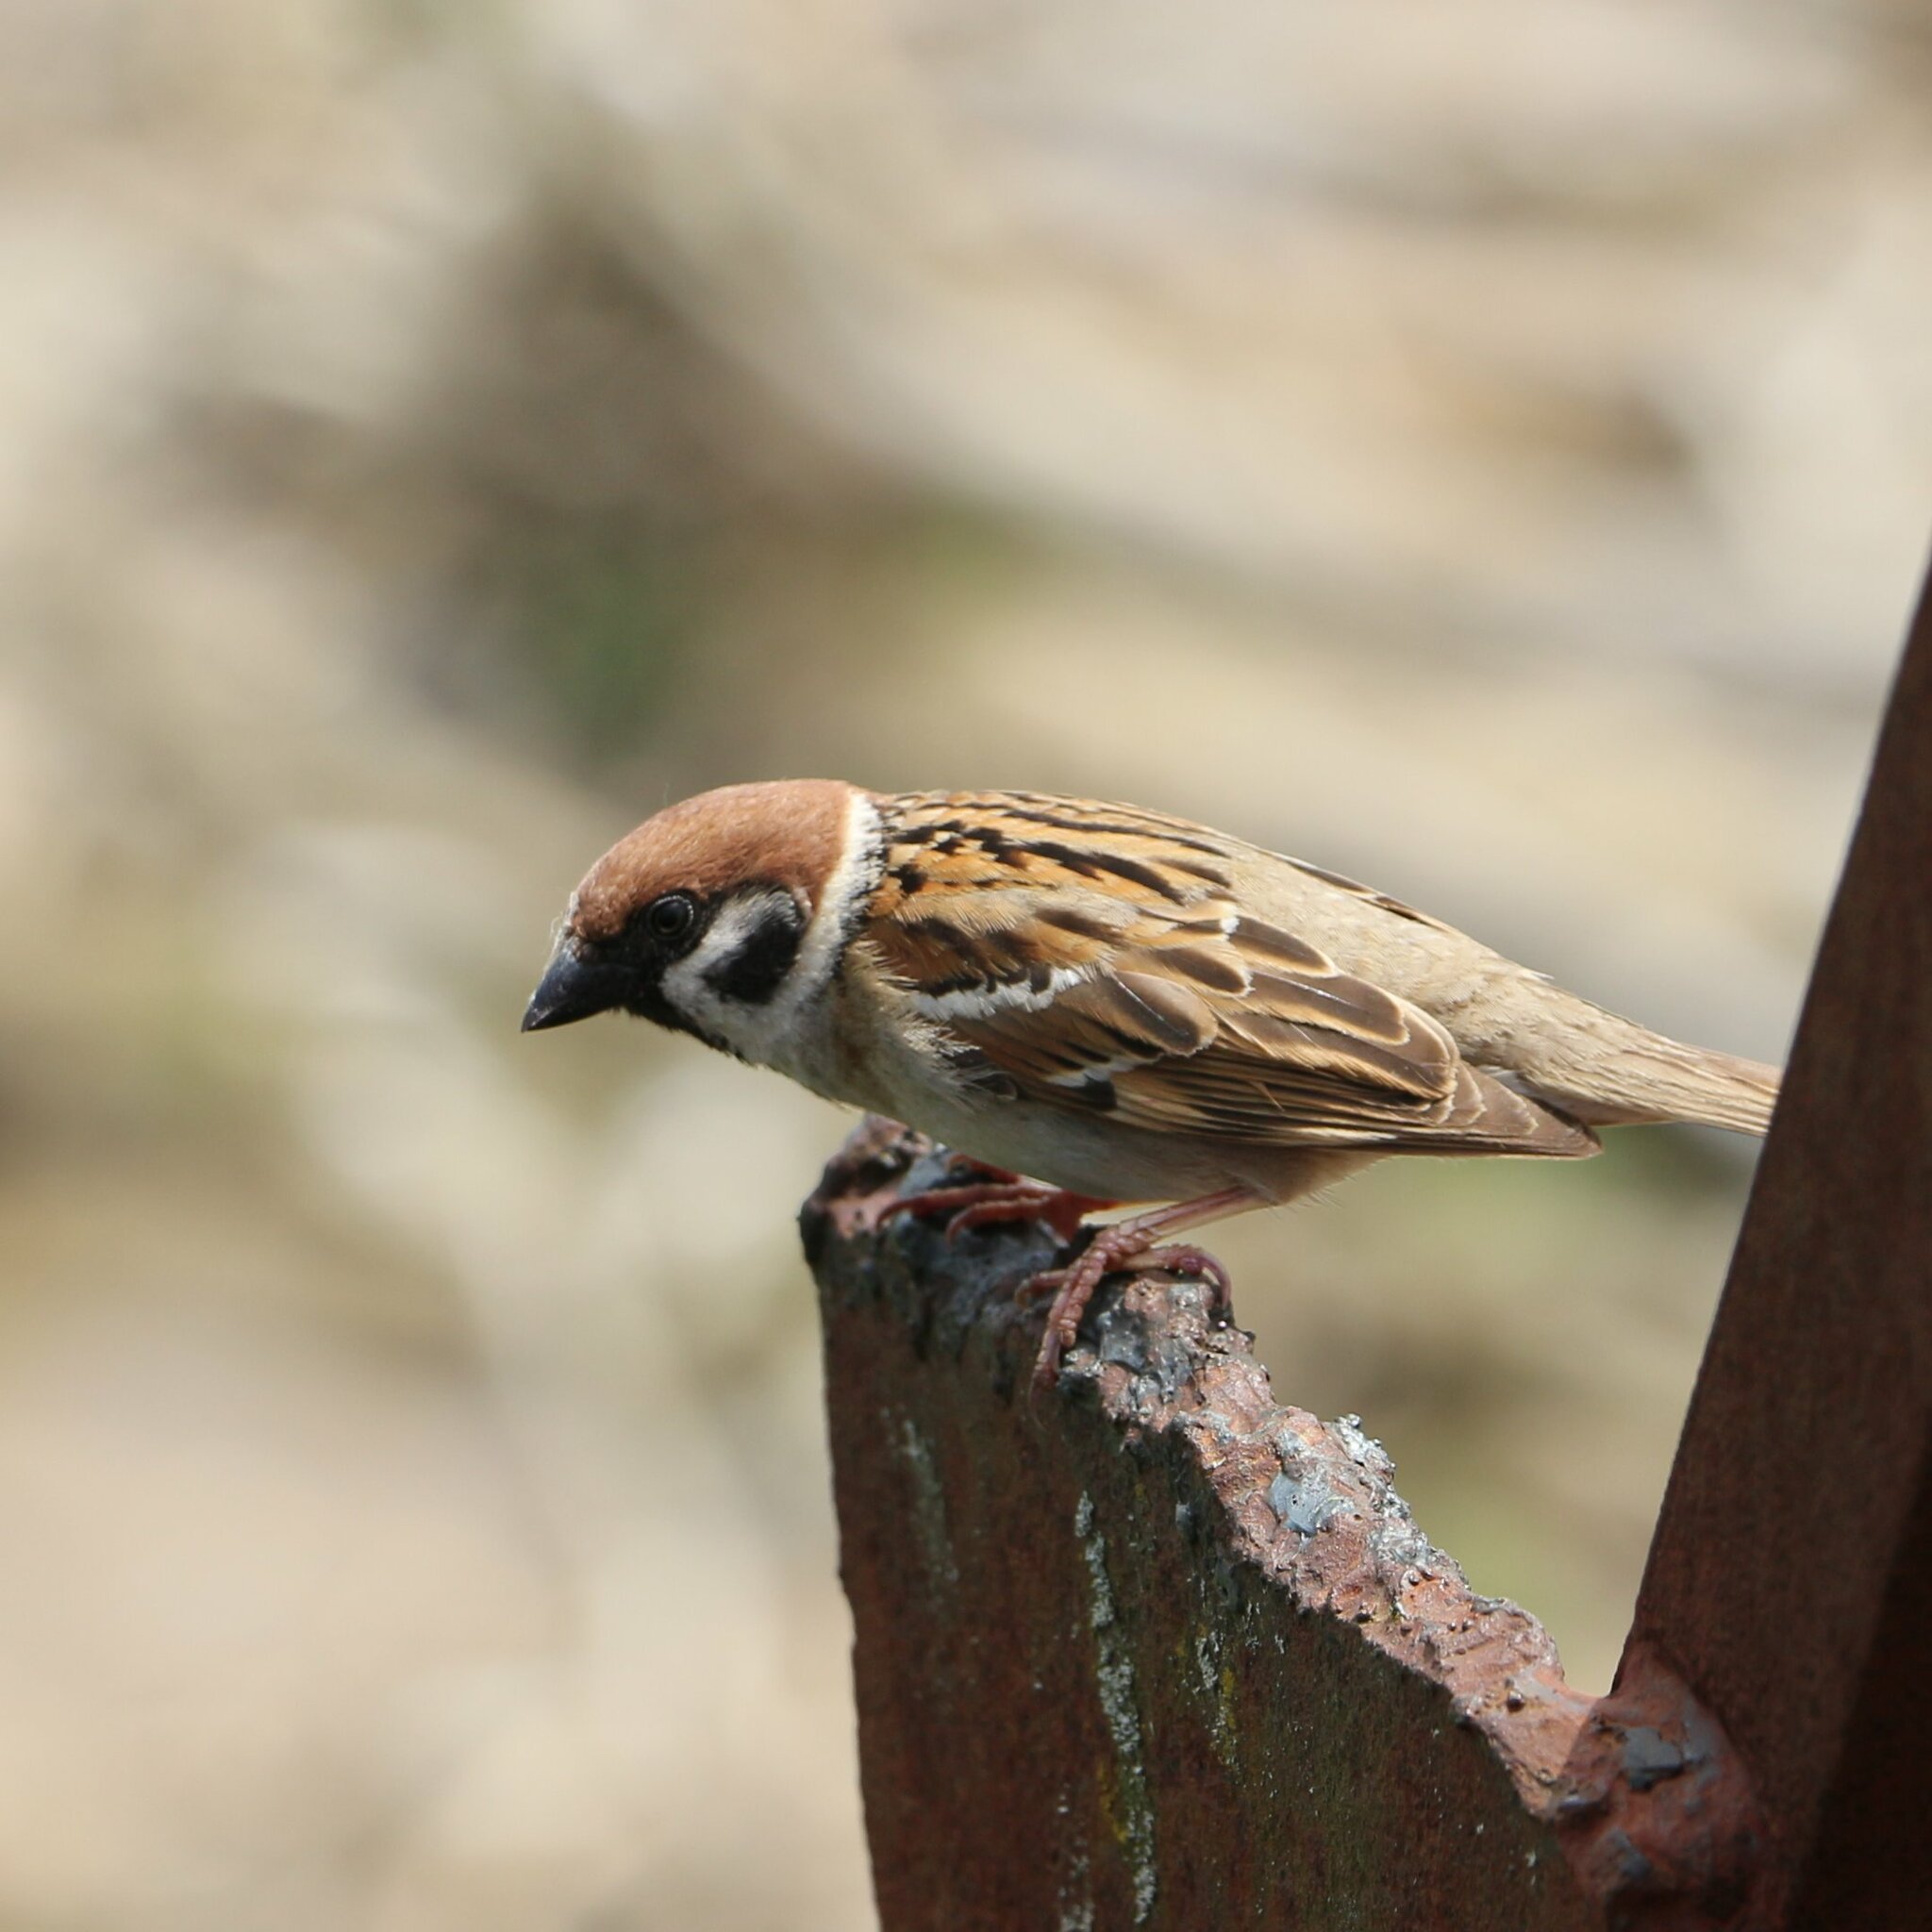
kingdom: Animalia
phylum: Chordata
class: Aves
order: Passeriformes
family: Passeridae
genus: Passer
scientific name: Passer montanus
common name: Eurasian tree sparrow
